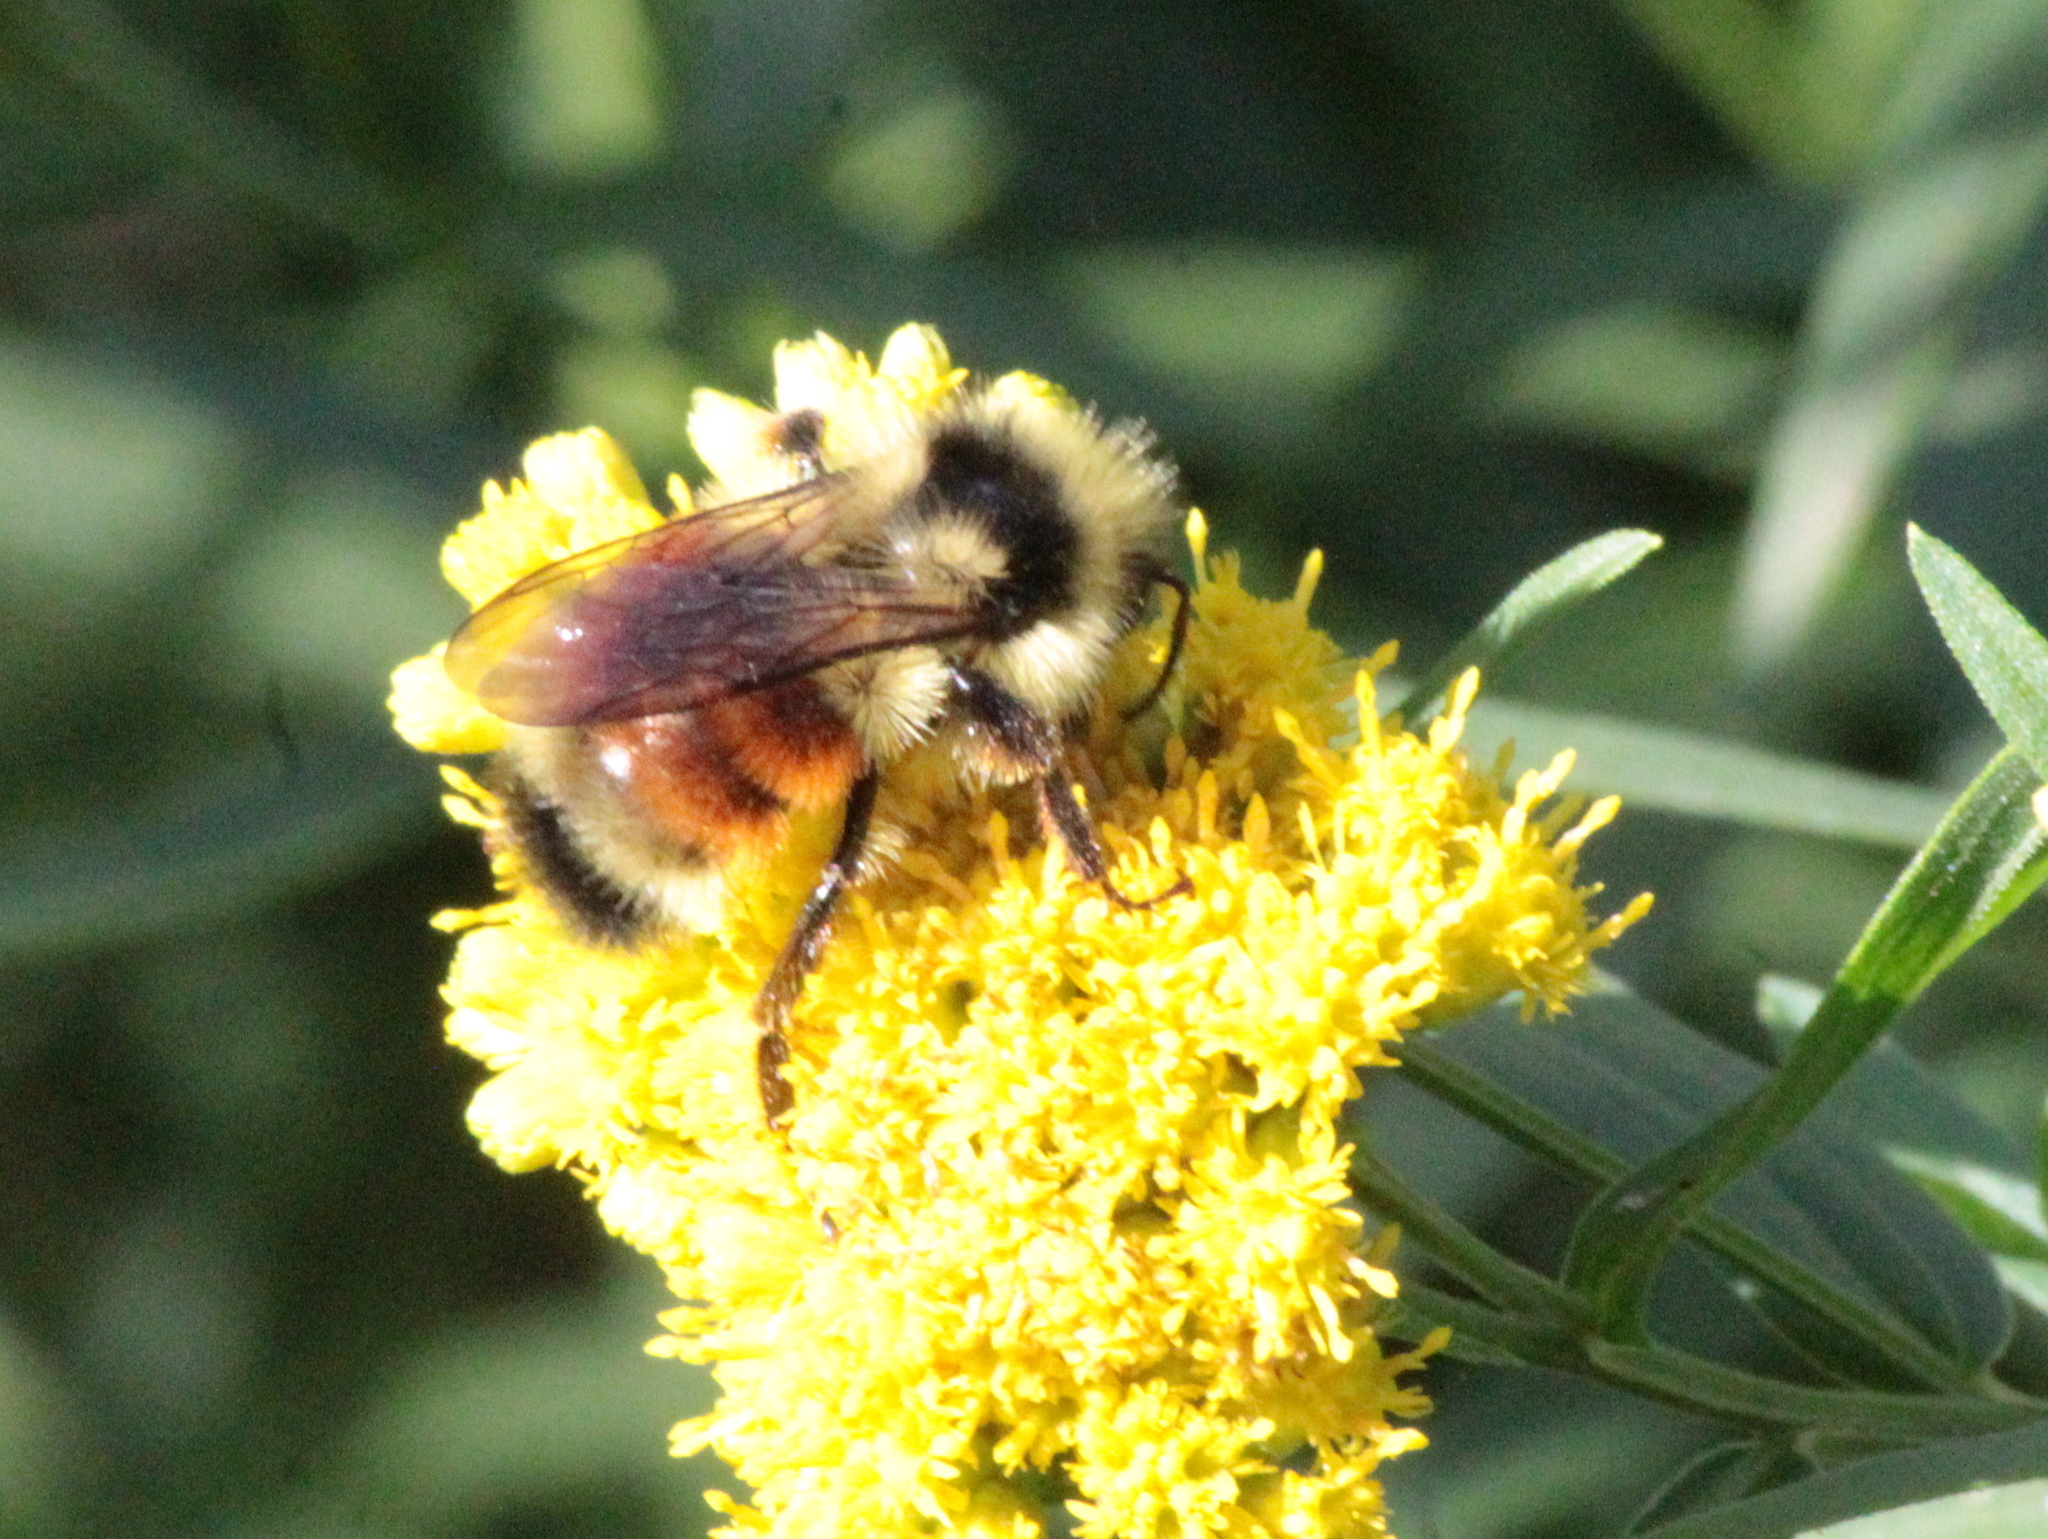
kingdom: Animalia
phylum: Arthropoda
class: Insecta
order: Hymenoptera
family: Apidae
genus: Bombus
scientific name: Bombus ternarius
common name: Tri-colored bumble bee
